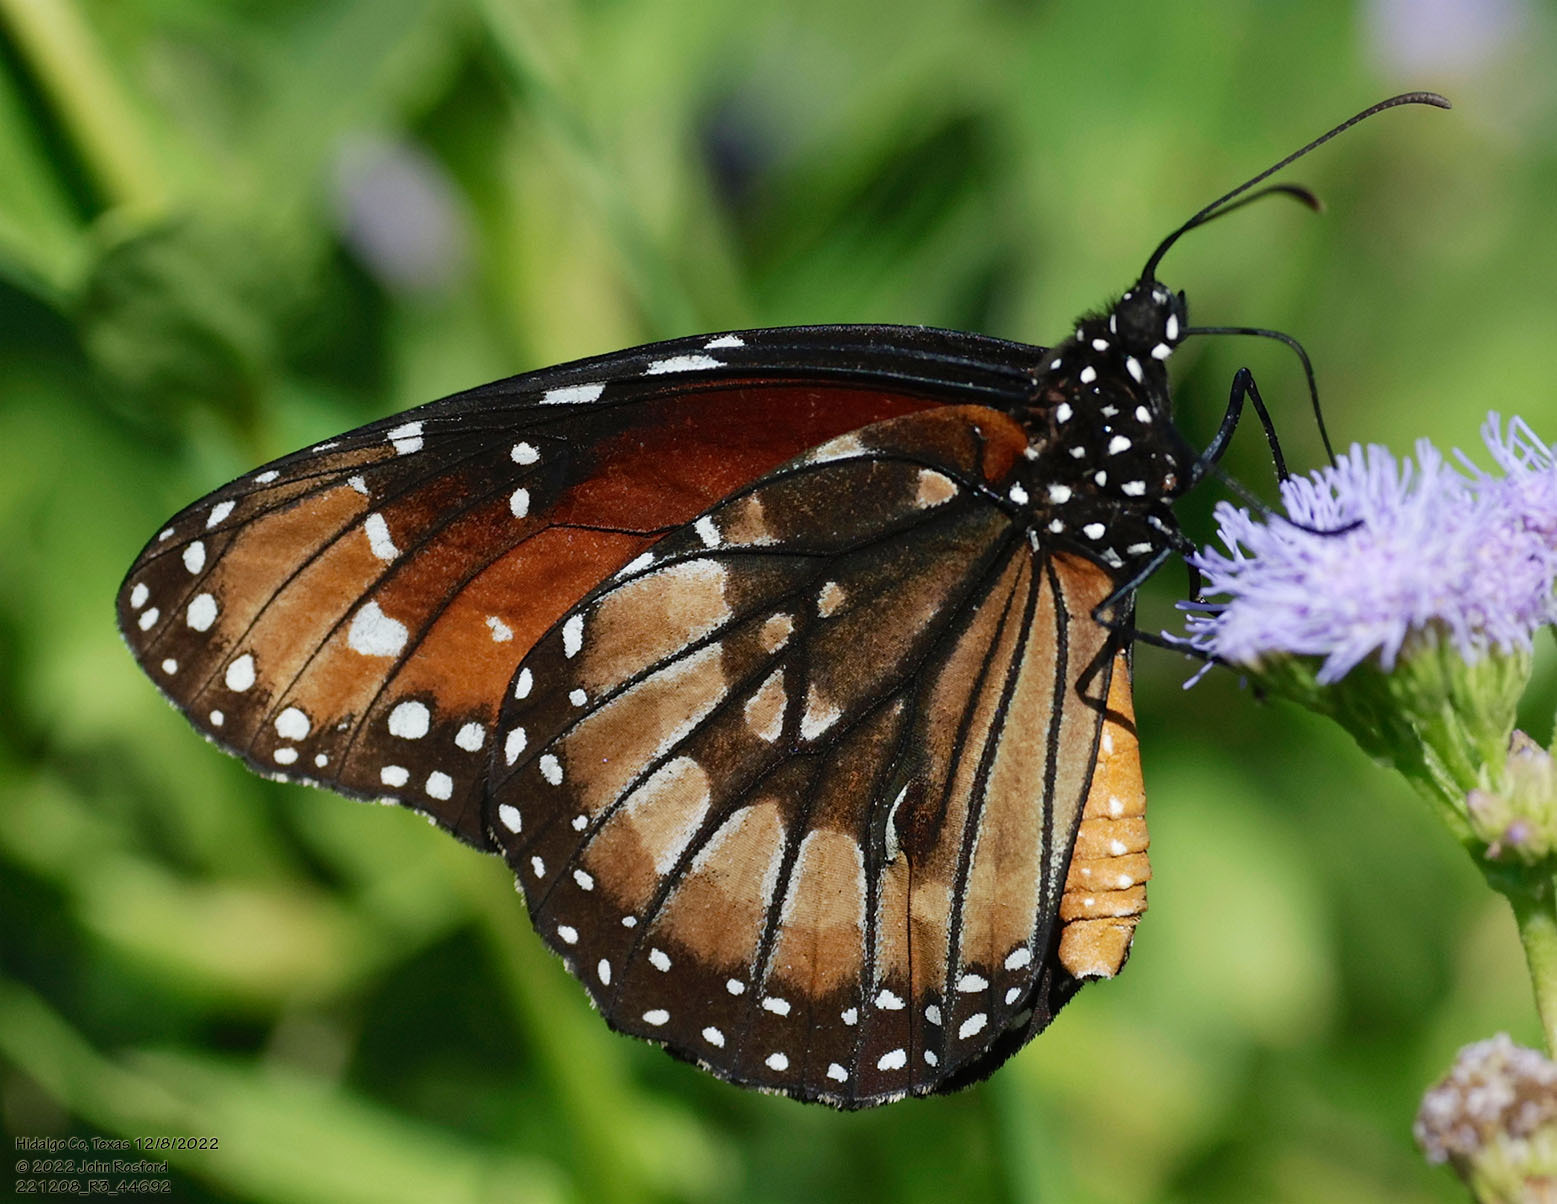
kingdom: Animalia
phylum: Arthropoda
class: Insecta
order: Lepidoptera
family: Nymphalidae
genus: Danaus
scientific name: Danaus eresimus
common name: Soldier
